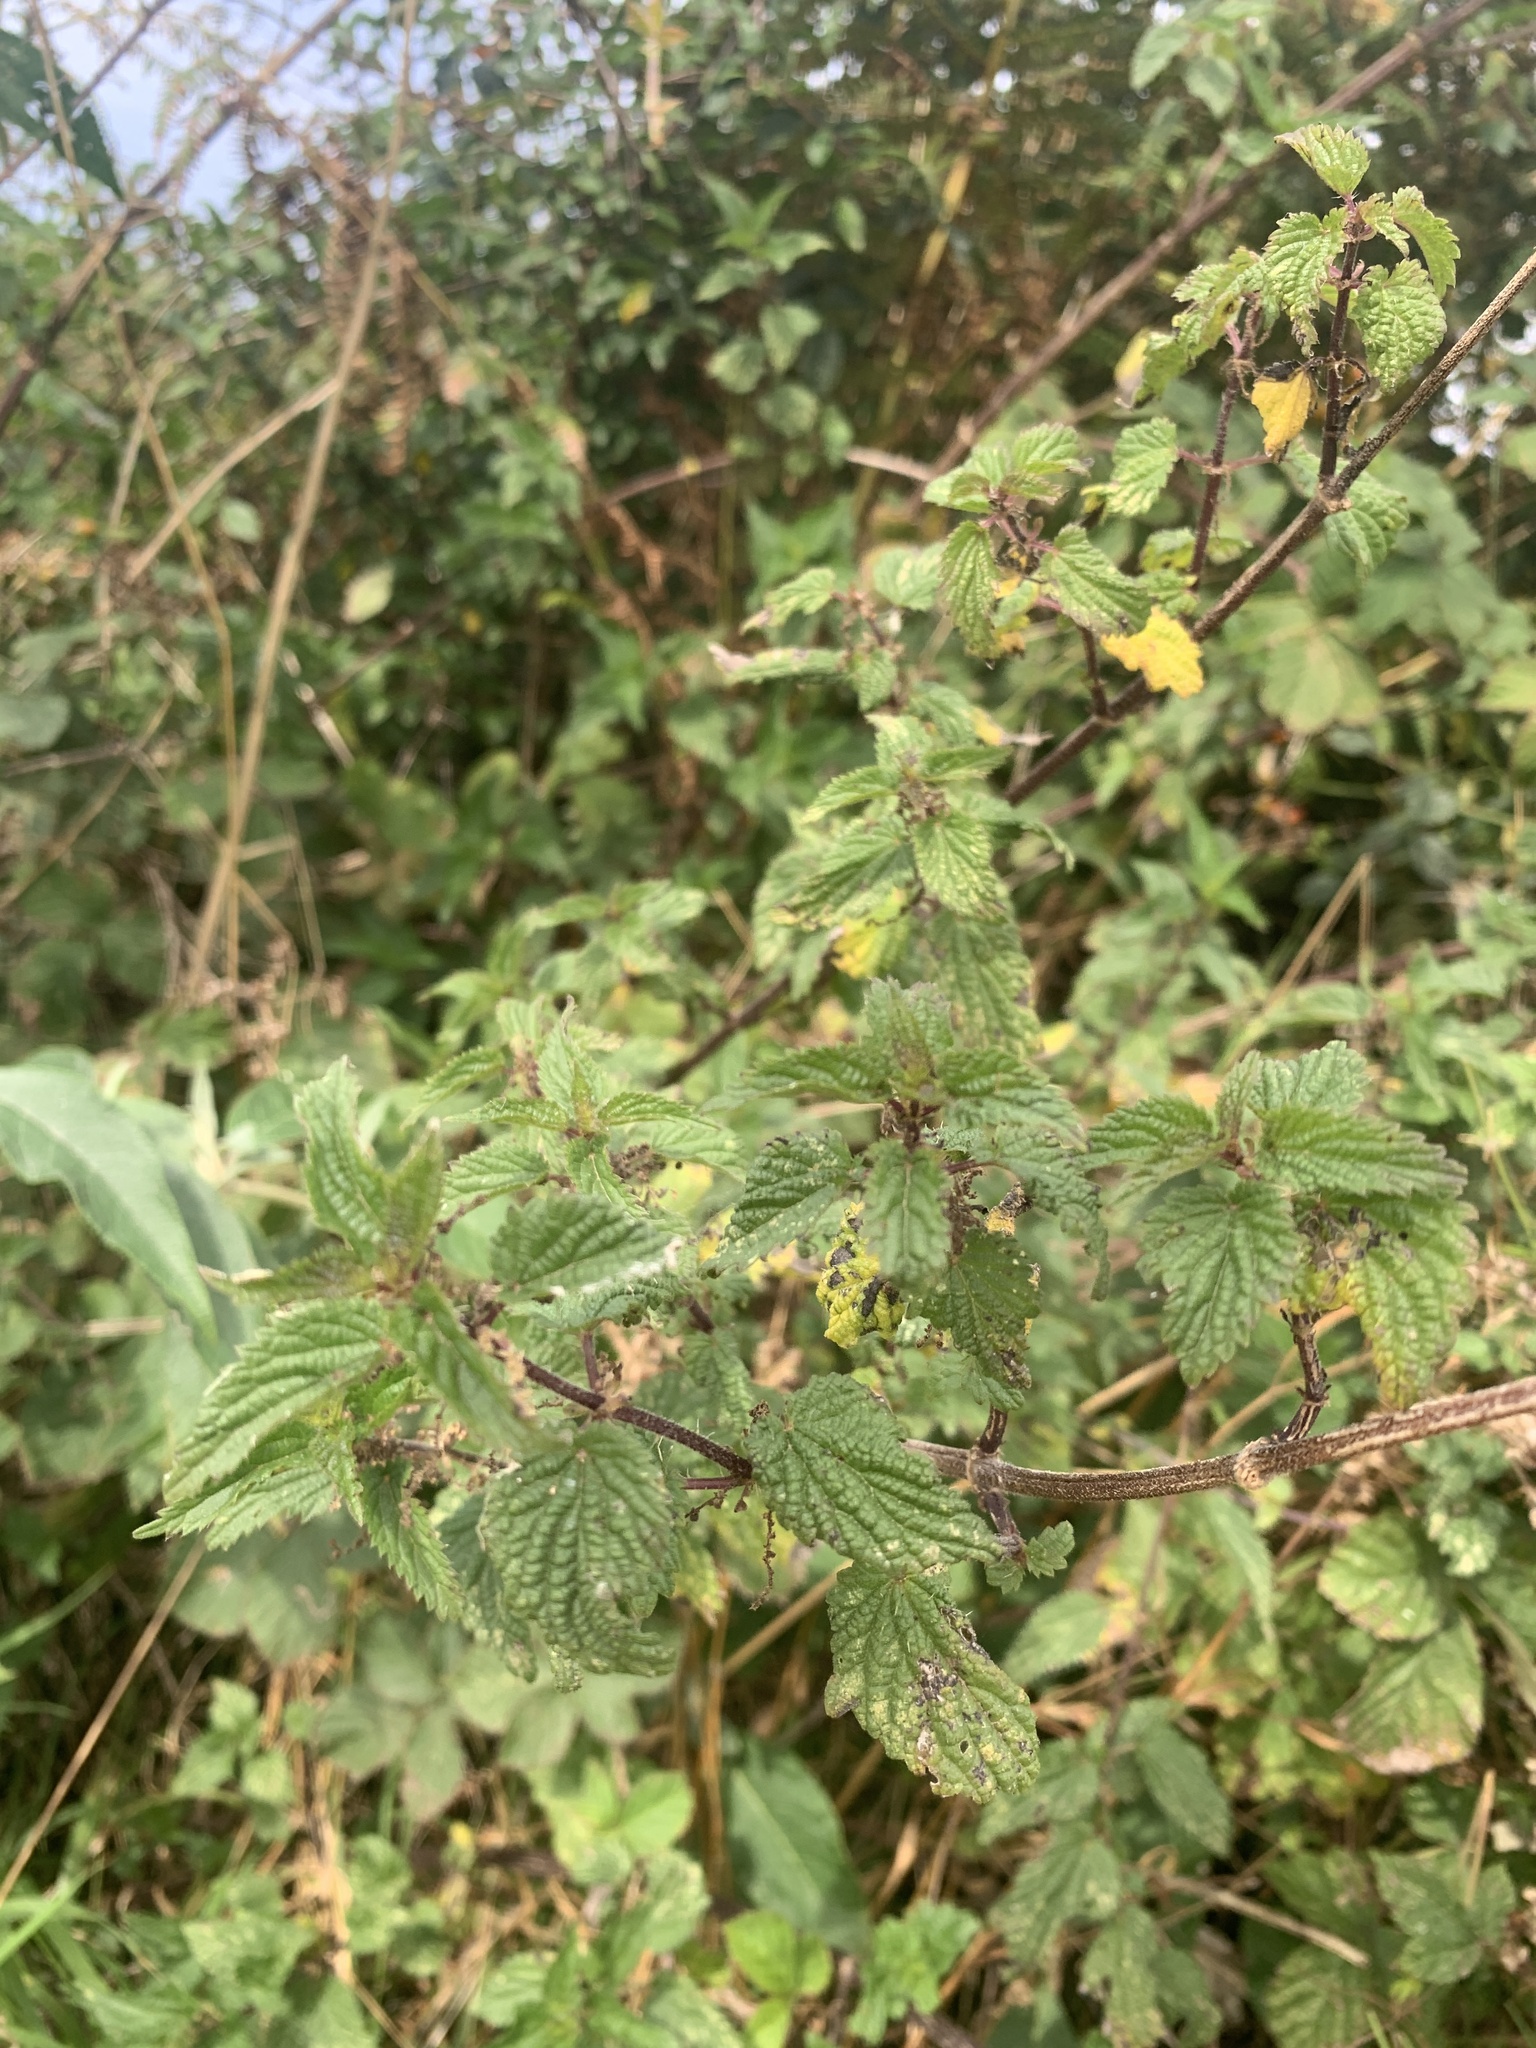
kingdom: Plantae
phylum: Tracheophyta
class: Magnoliopsida
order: Rosales
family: Urticaceae
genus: Urtica
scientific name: Urtica dioica
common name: Common nettle
